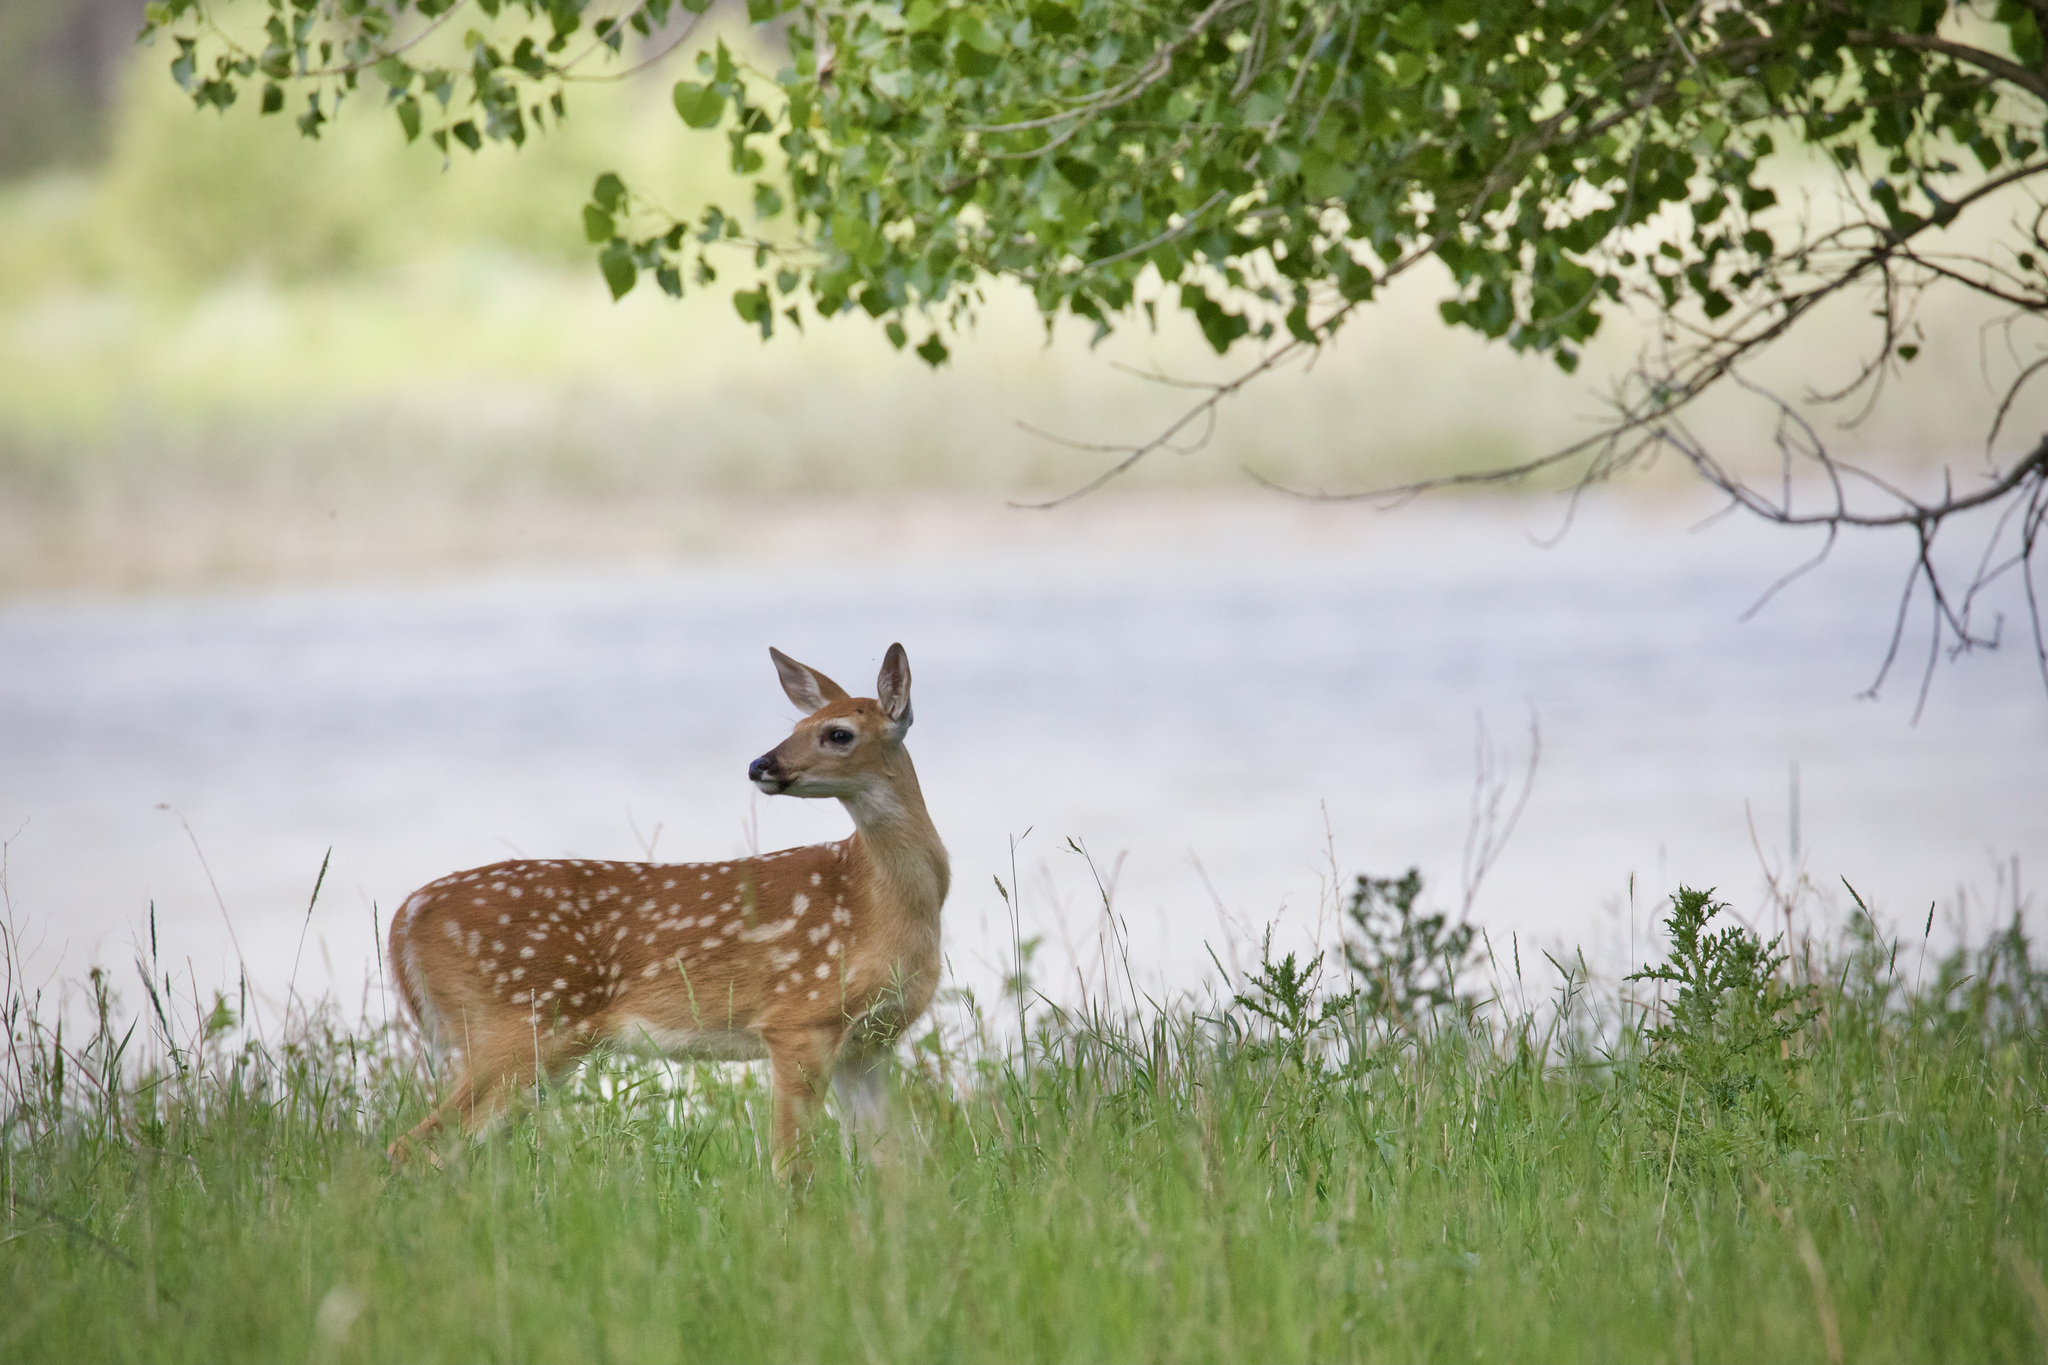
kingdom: Animalia
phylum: Chordata
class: Mammalia
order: Artiodactyla
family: Cervidae
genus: Odocoileus
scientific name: Odocoileus virginianus
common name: White-tailed deer
